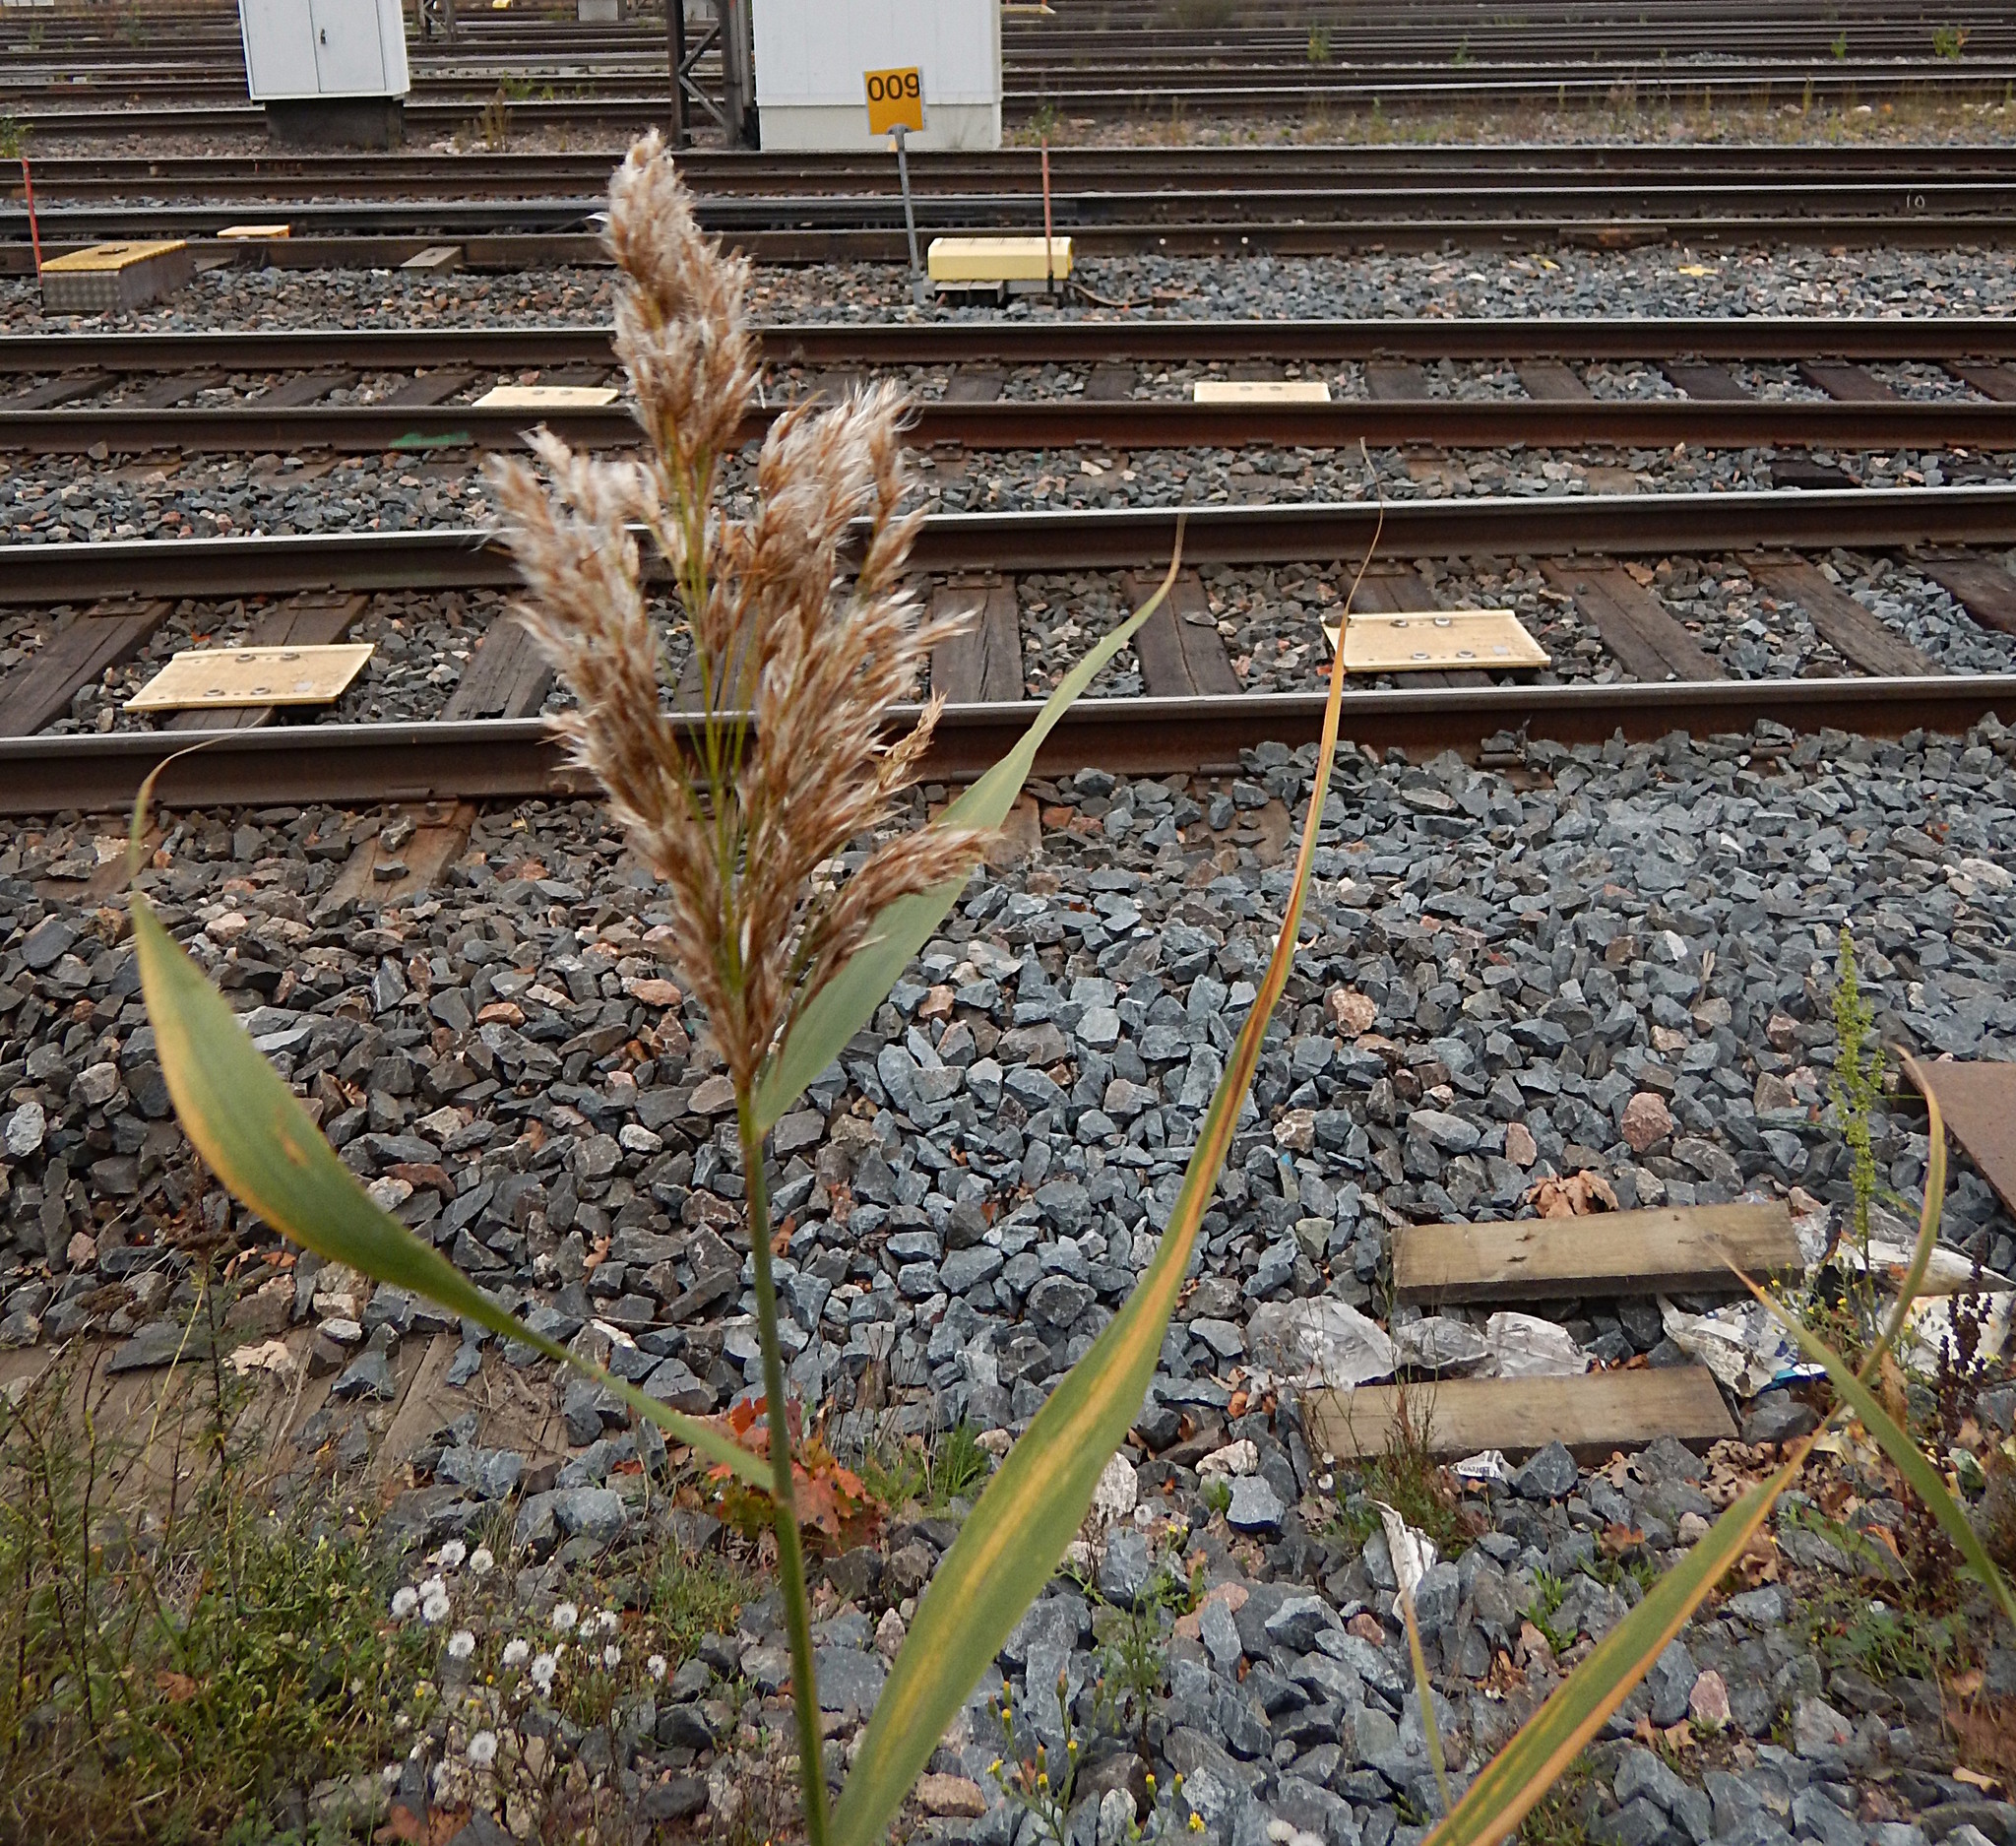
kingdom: Plantae
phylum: Tracheophyta
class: Liliopsida
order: Poales
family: Poaceae
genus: Phragmites
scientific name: Phragmites australis
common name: Common reed
